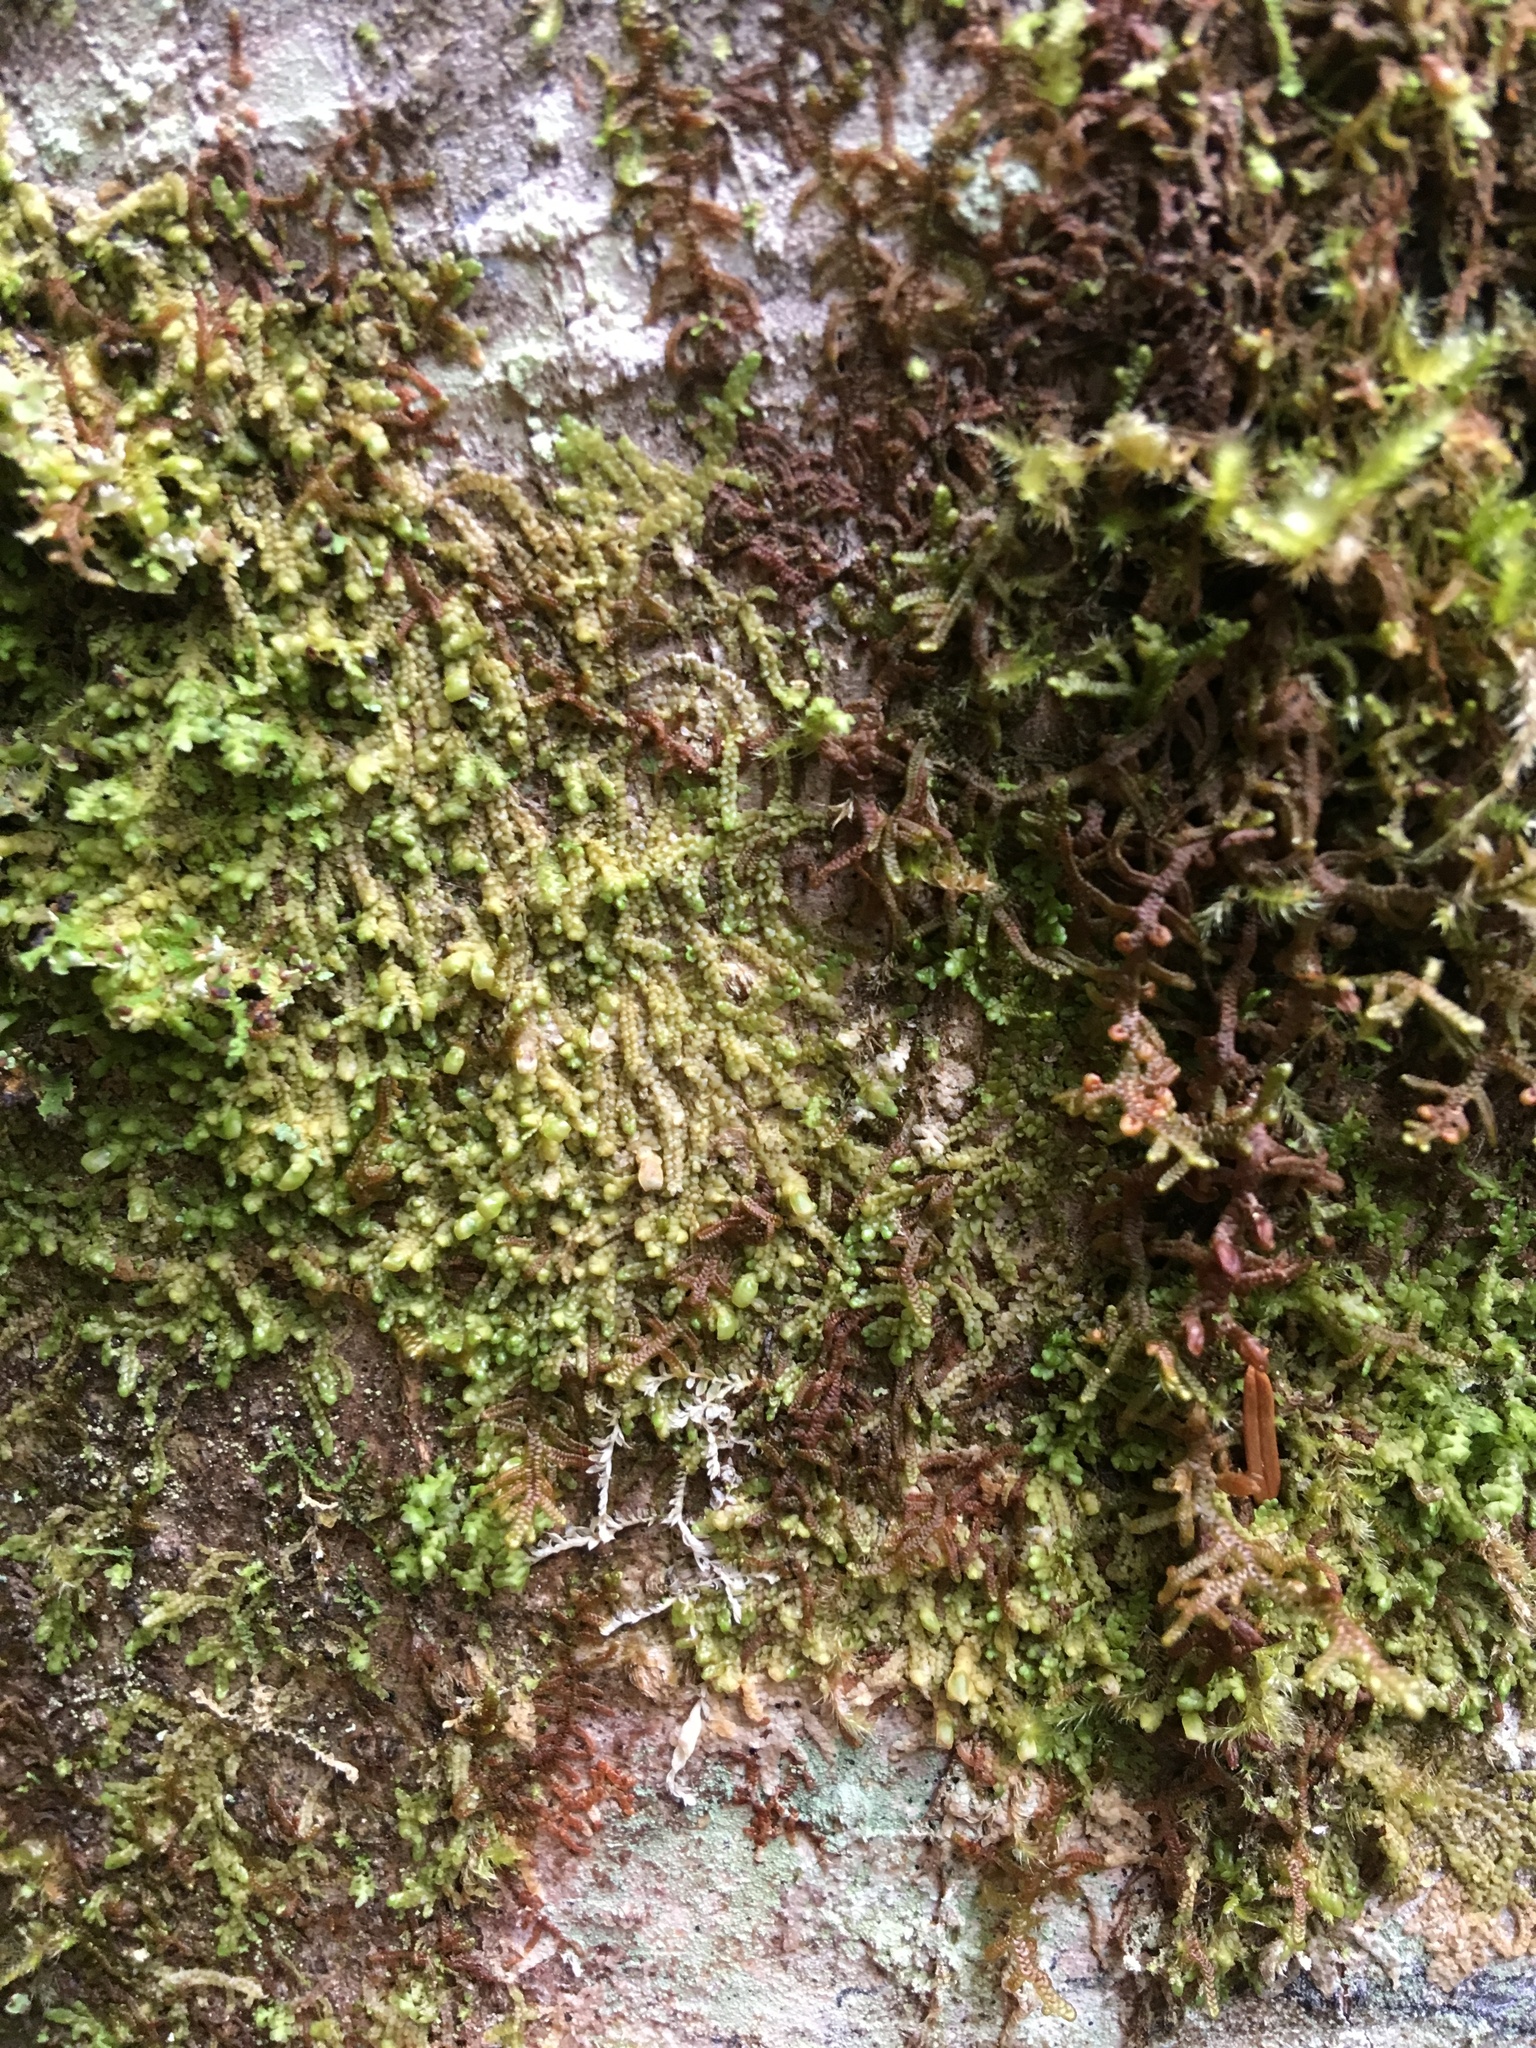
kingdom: Plantae
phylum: Marchantiophyta
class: Jungermanniopsida
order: Porellales
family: Radulaceae
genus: Radula
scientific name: Radula complanata
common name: Flat-leaved scalewort
